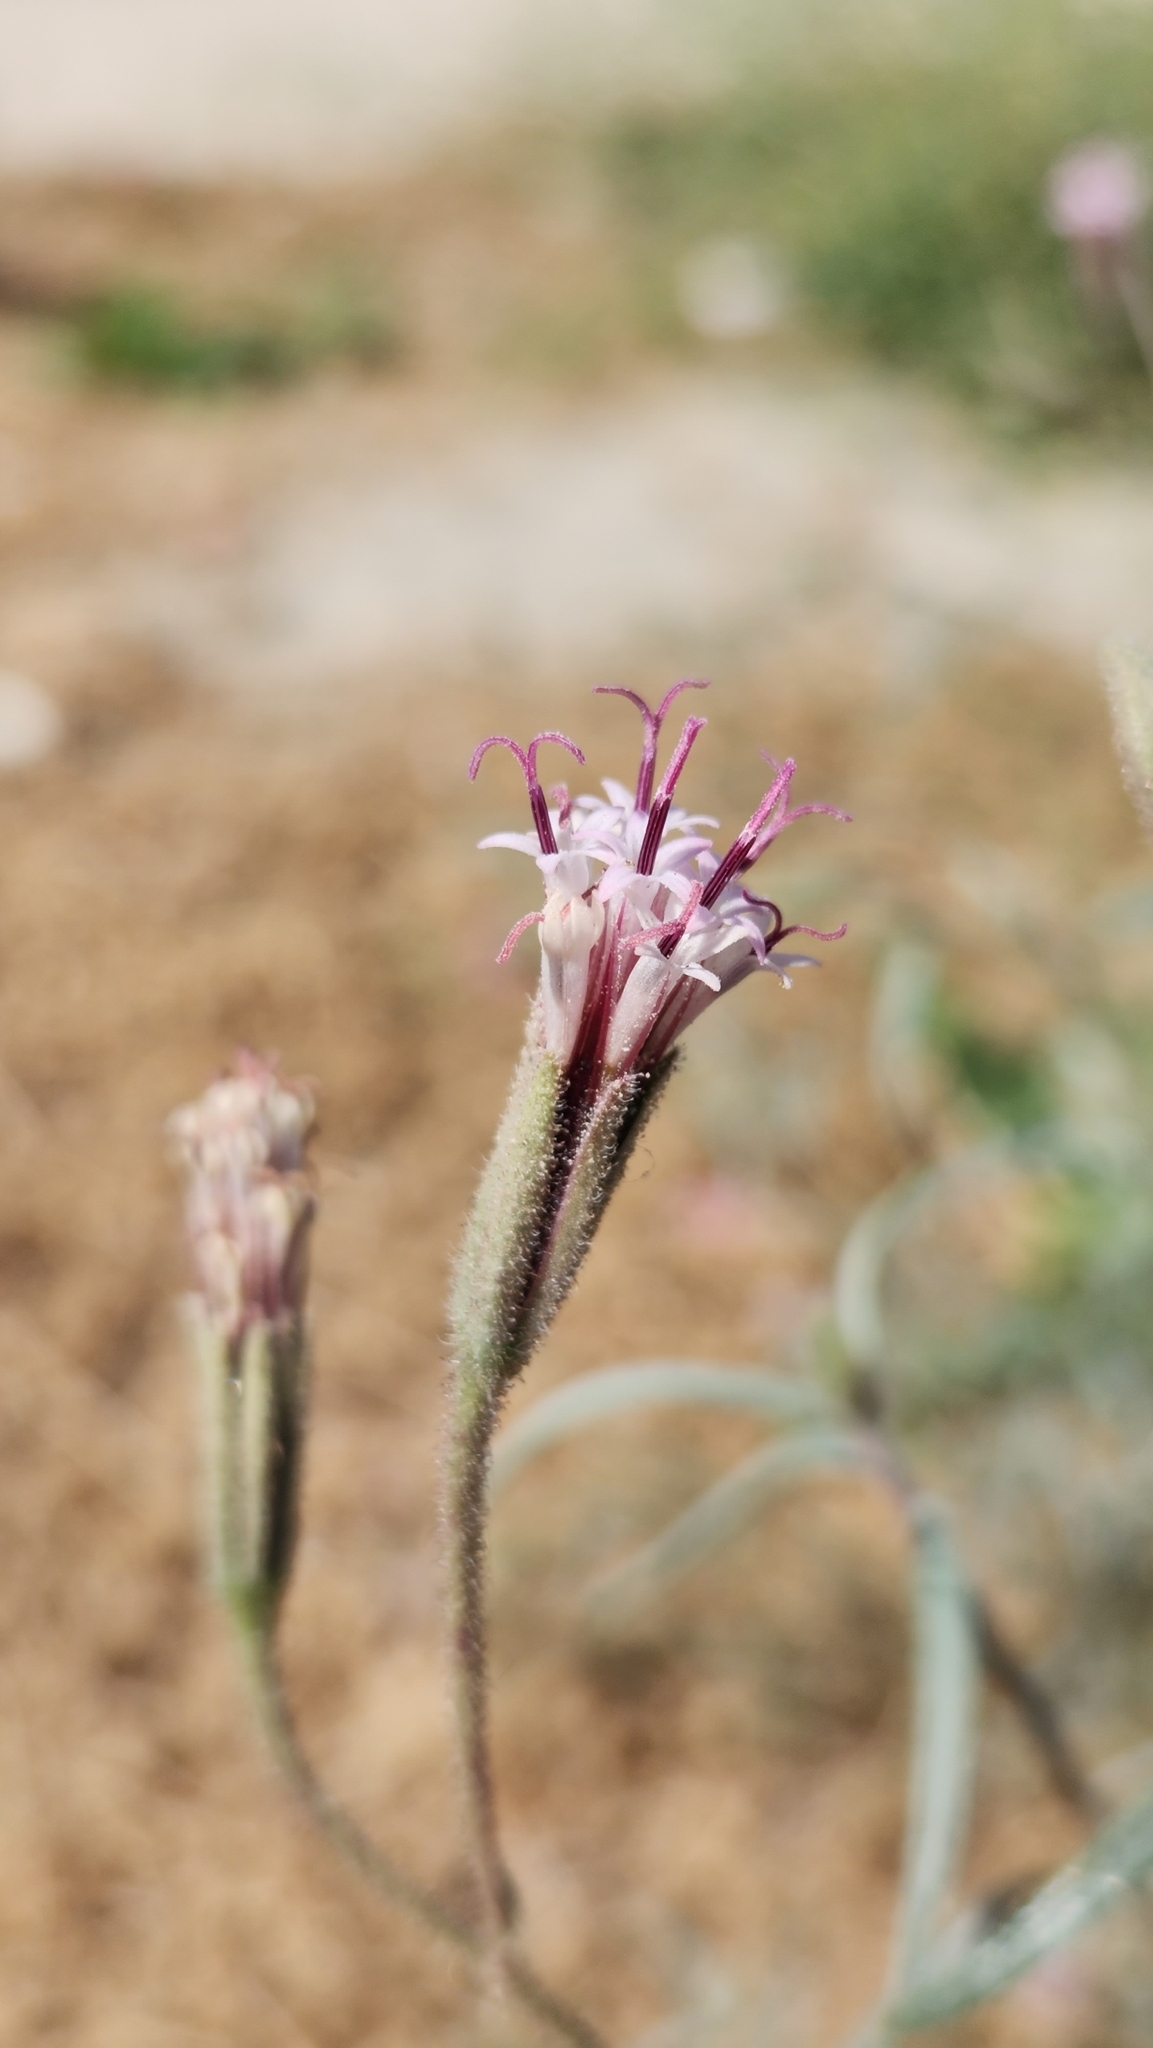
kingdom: Plantae
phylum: Tracheophyta
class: Magnoliopsida
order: Asterales
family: Asteraceae
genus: Palafoxia
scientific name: Palafoxia arida
